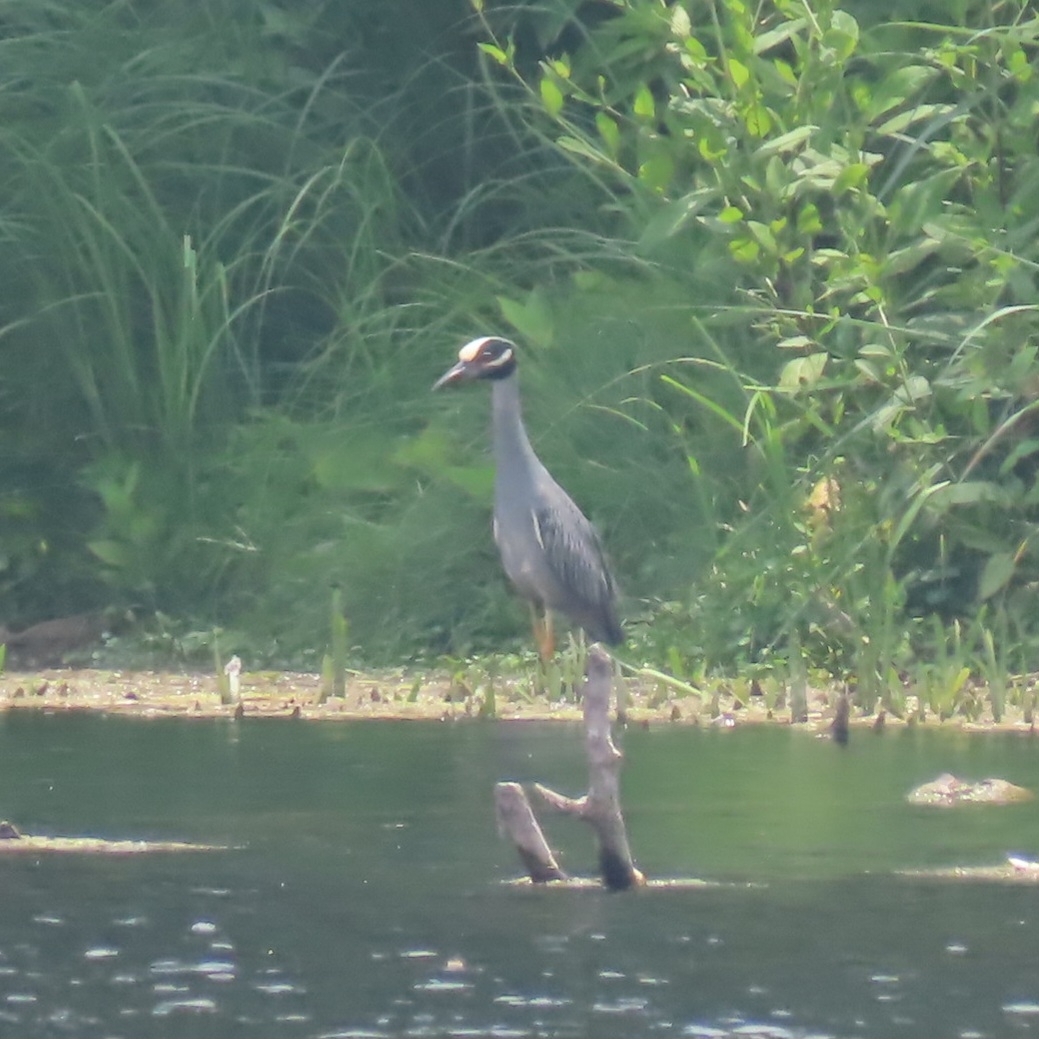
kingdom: Animalia
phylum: Chordata
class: Aves
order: Pelecaniformes
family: Ardeidae
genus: Nyctanassa
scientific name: Nyctanassa violacea
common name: Yellow-crowned night heron
